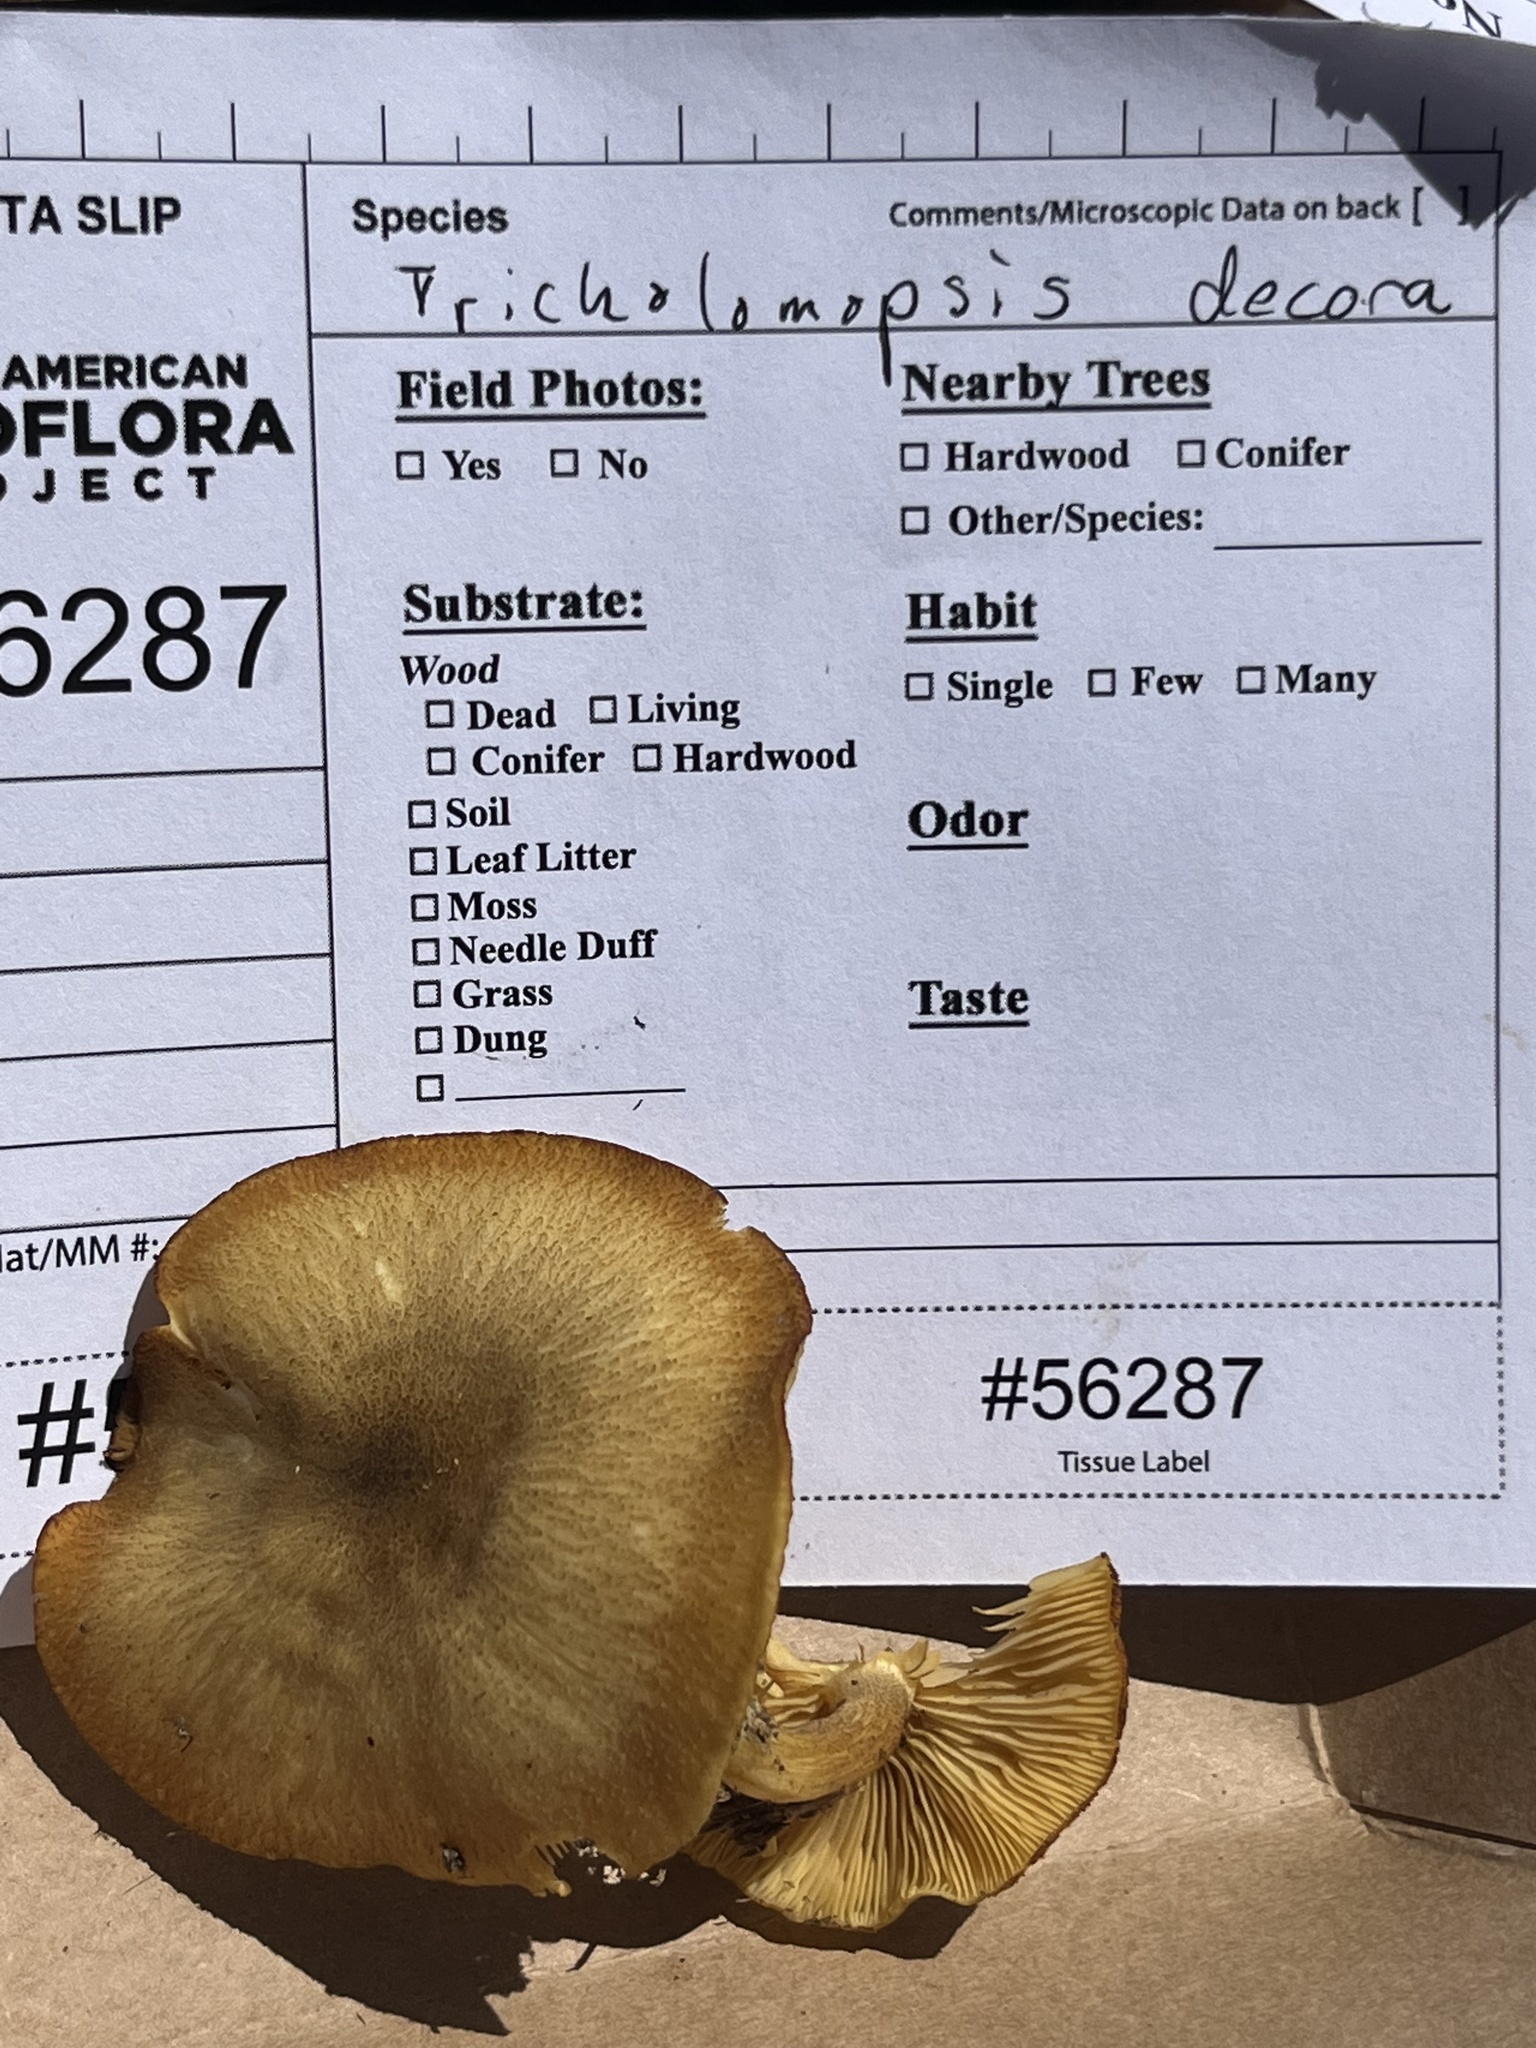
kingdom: Fungi
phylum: Basidiomycota
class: Agaricomycetes
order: Agaricales
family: Tricholomataceae
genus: Tricholomopsis
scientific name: Tricholomopsis decora
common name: Prunes and custard
